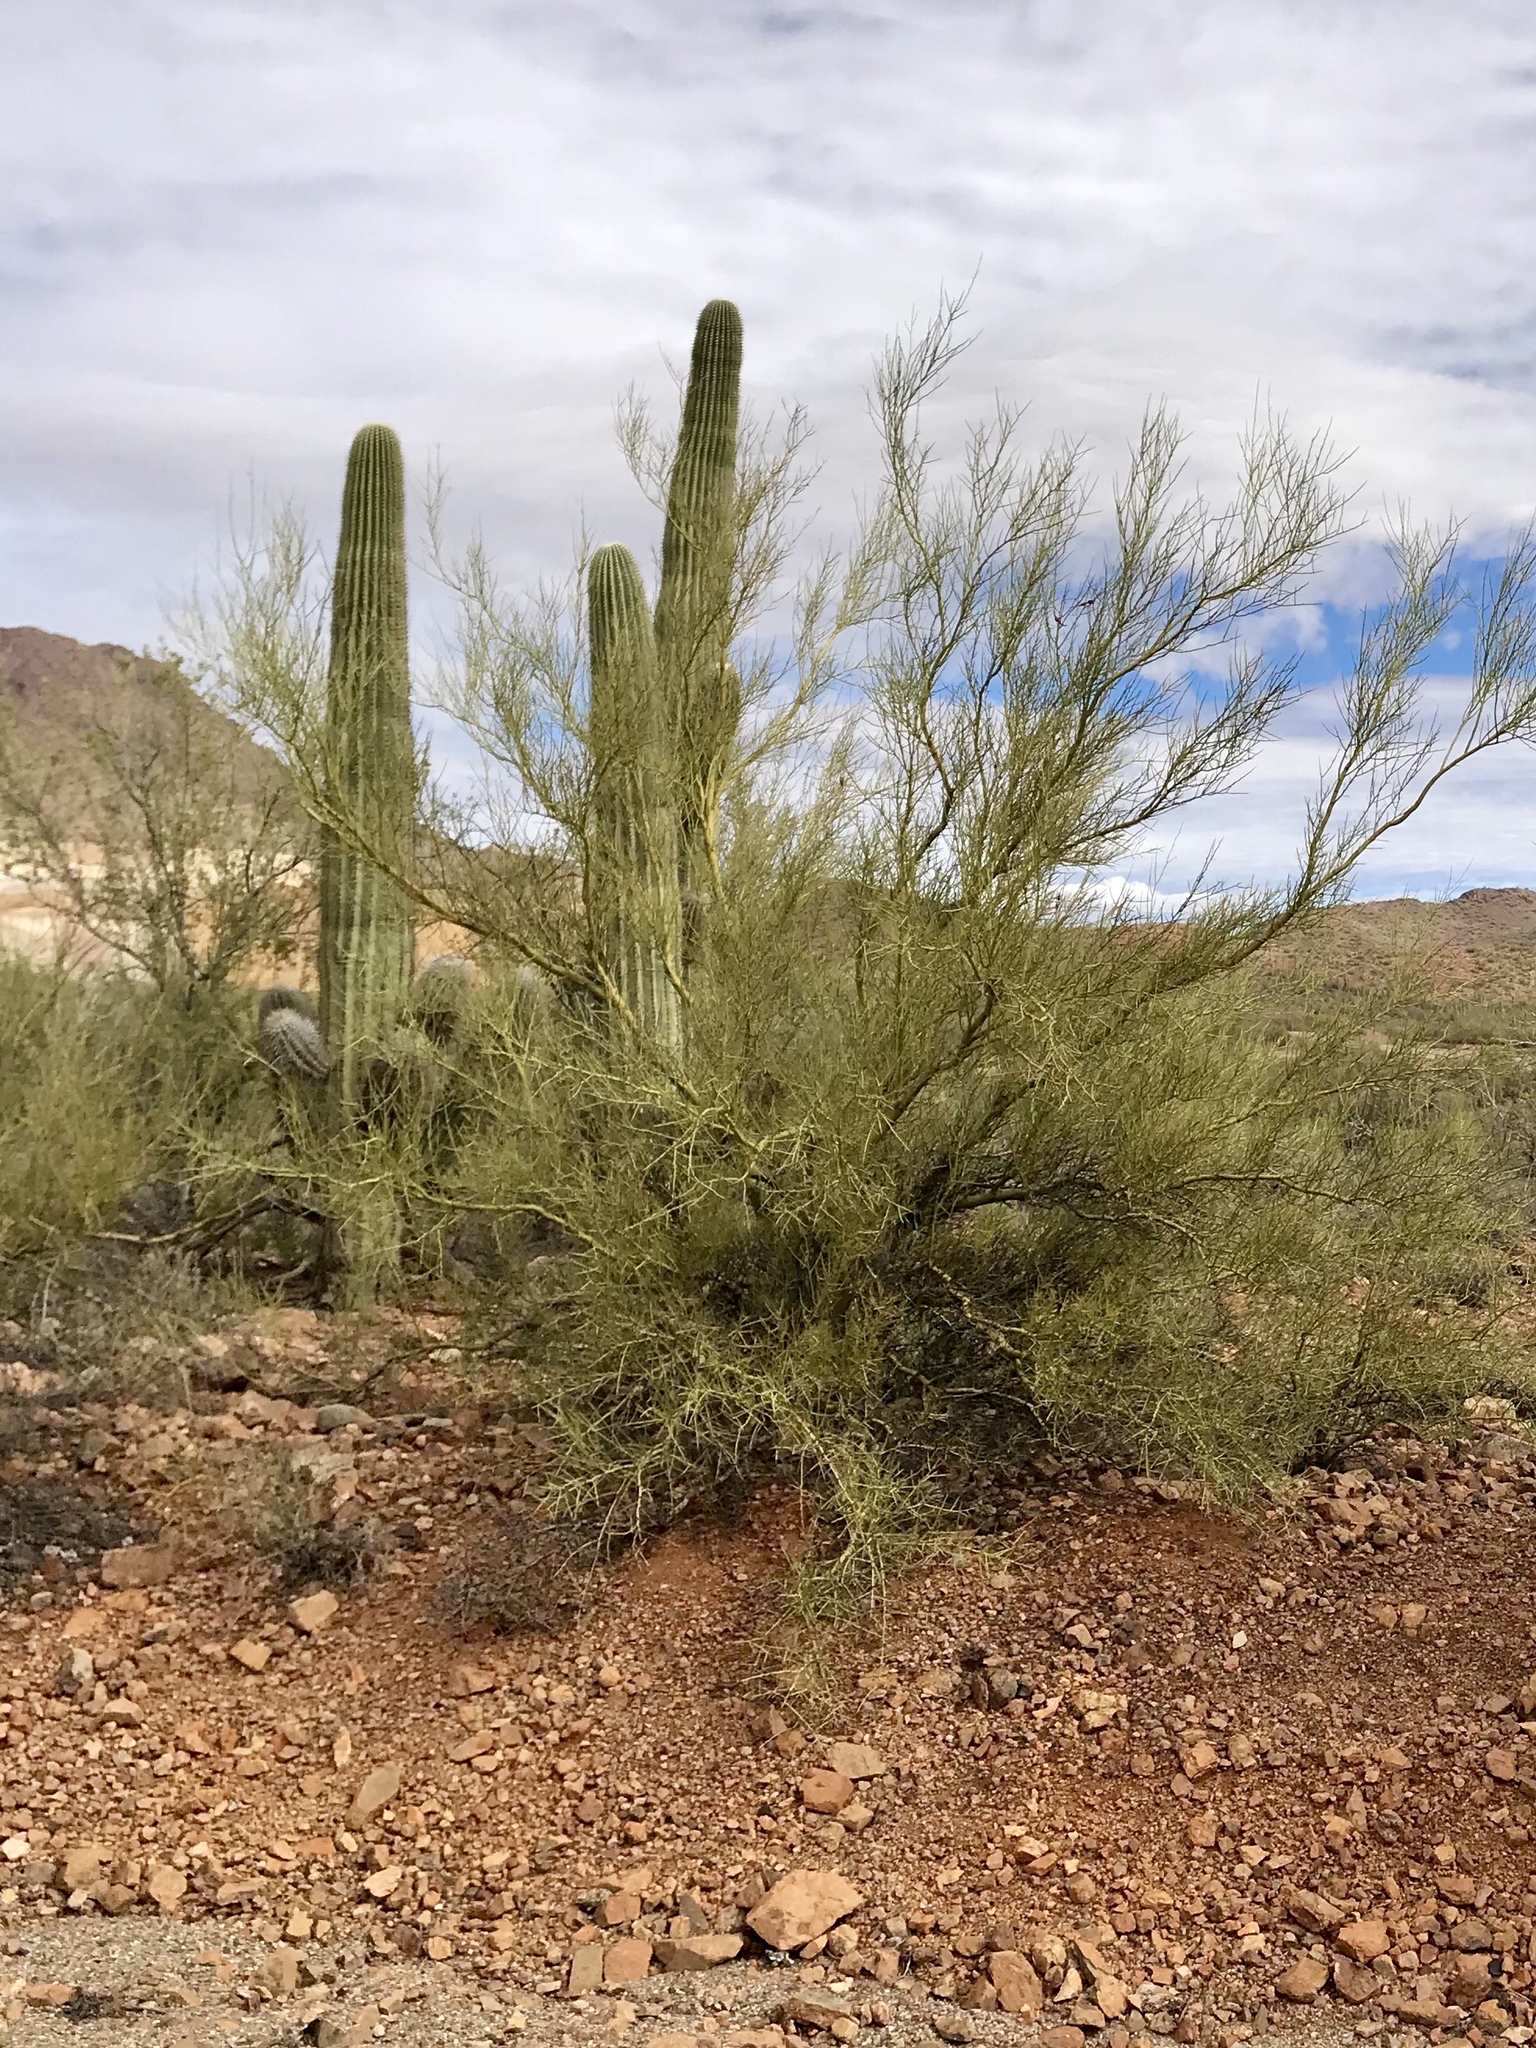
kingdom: Plantae
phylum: Tracheophyta
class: Magnoliopsida
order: Fabales
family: Fabaceae
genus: Parkinsonia
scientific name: Parkinsonia microphylla
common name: Yellow paloverde
